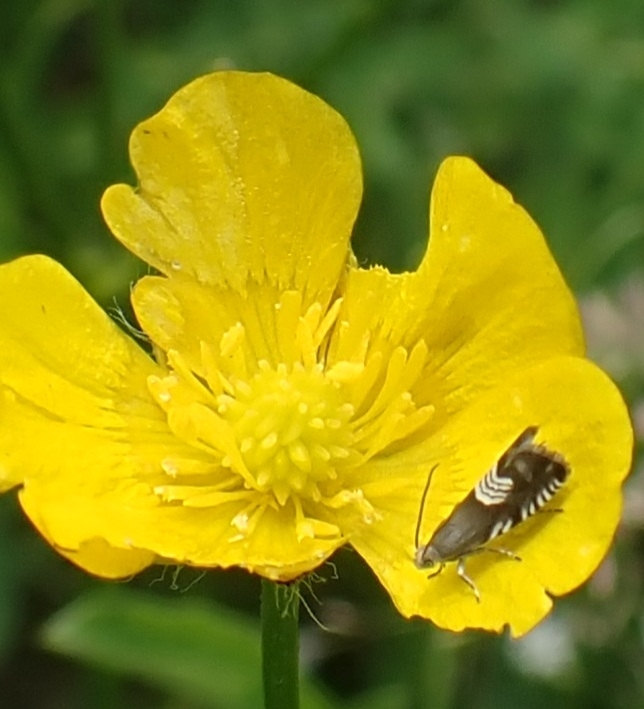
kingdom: Animalia
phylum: Arthropoda
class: Insecta
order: Lepidoptera
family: Tortricidae
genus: Grapholita
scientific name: Grapholita compositella
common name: Triple-stripe piercer
